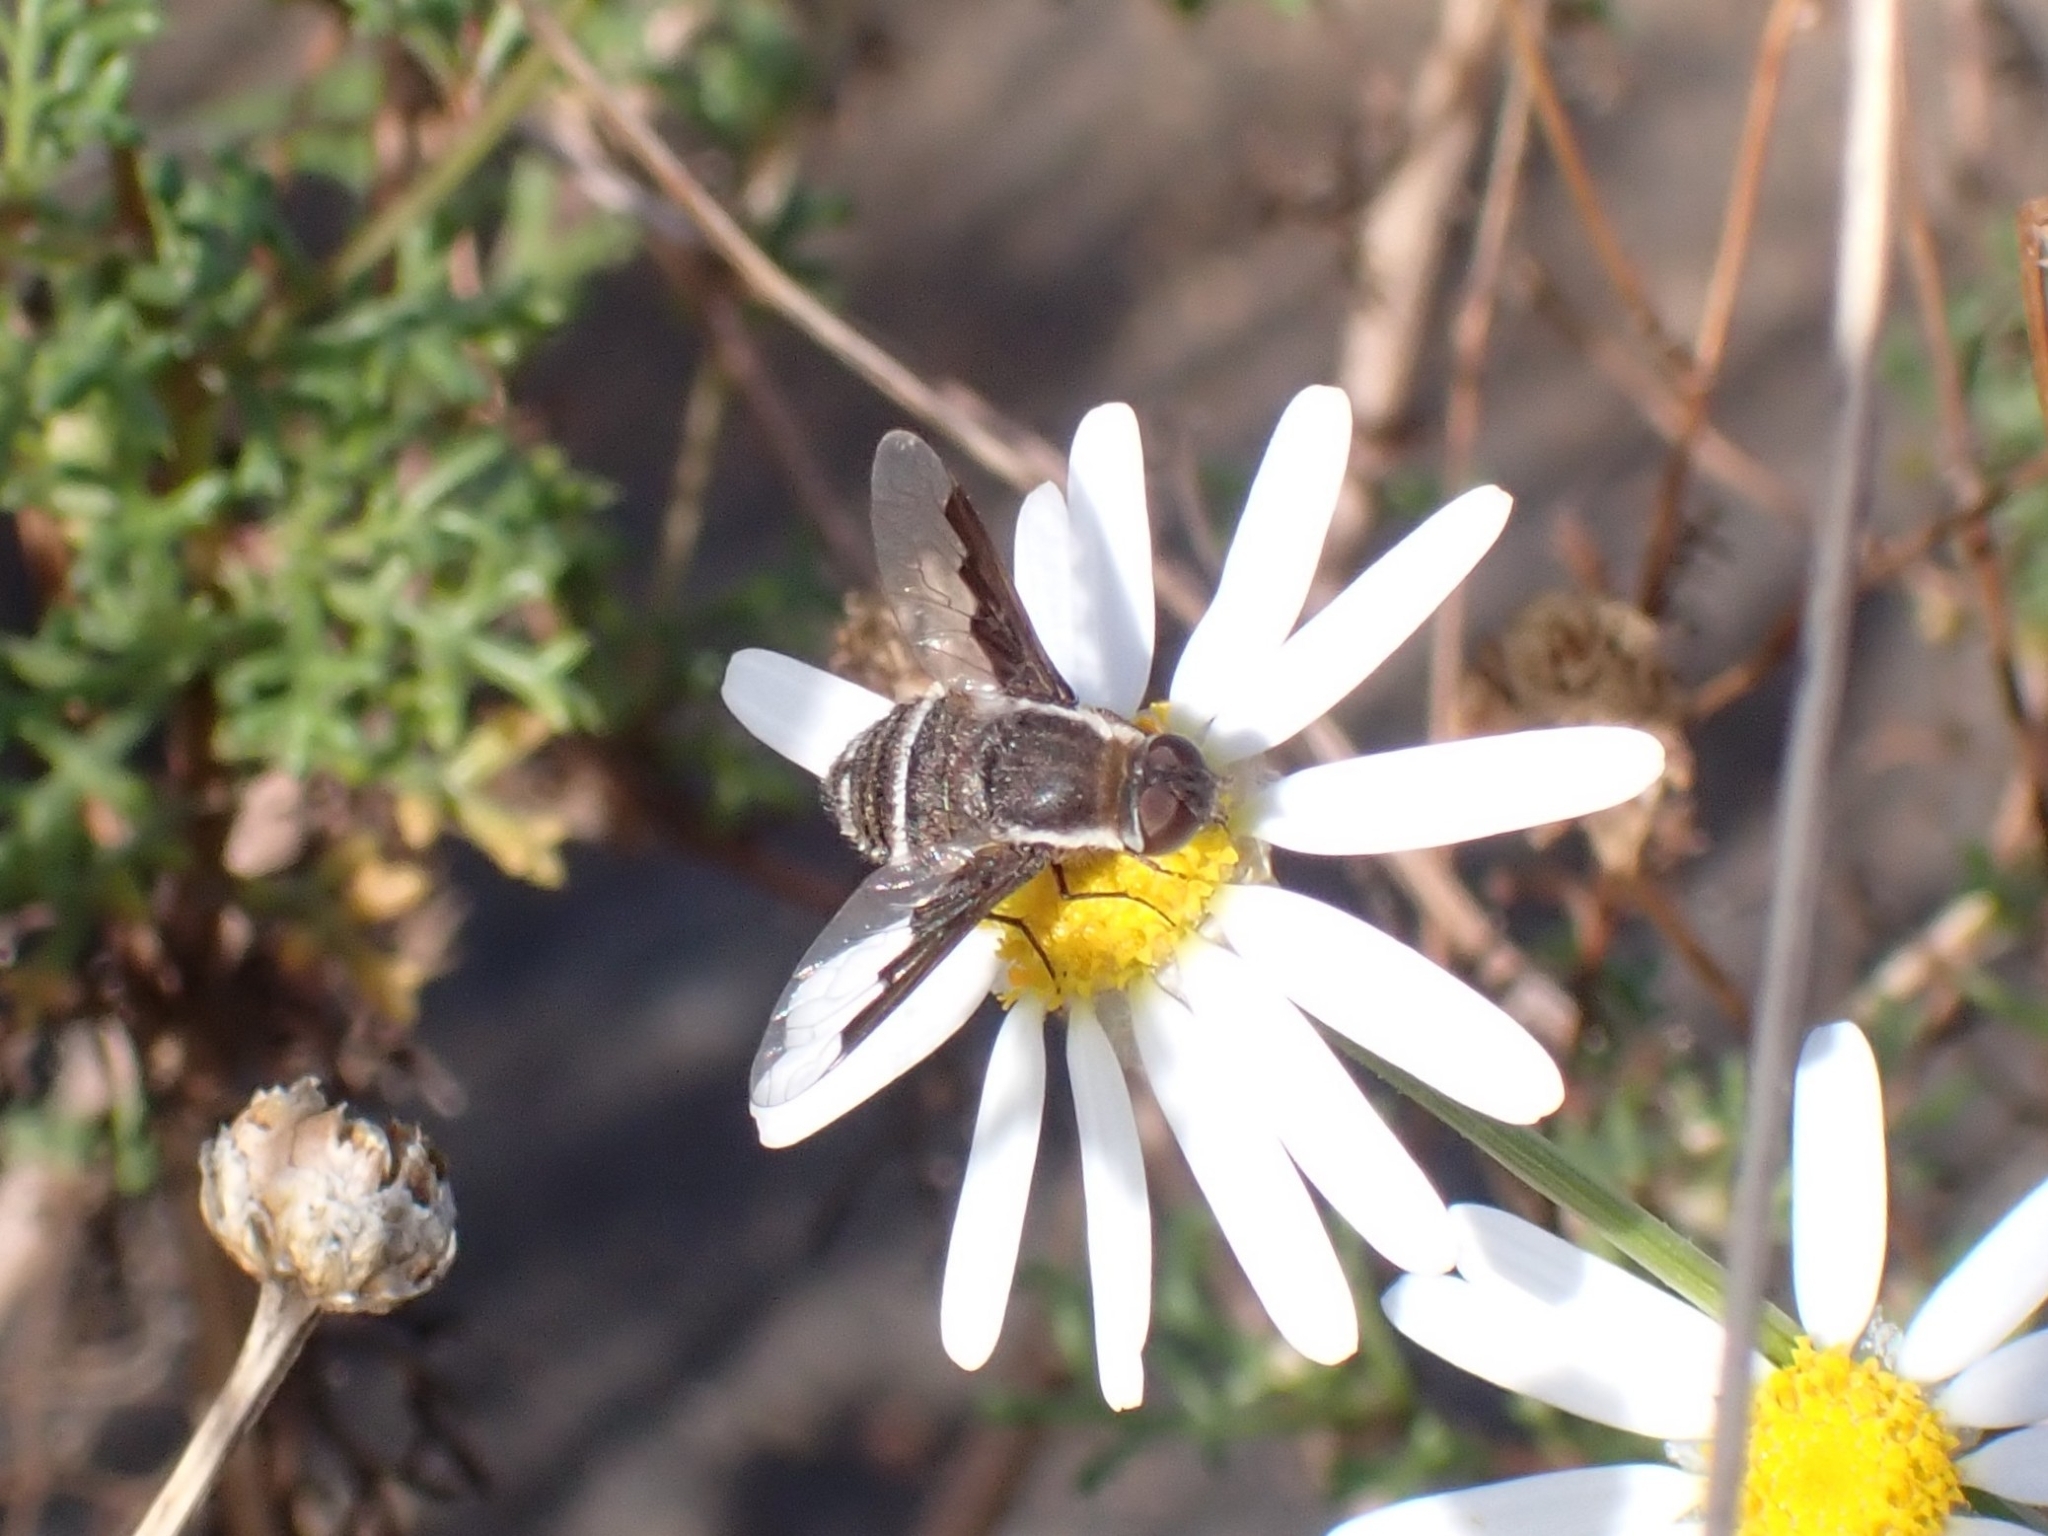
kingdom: Animalia
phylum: Arthropoda
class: Insecta
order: Diptera
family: Bombyliidae
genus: Exhyalanthrax
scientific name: Exhyalanthrax simonae
